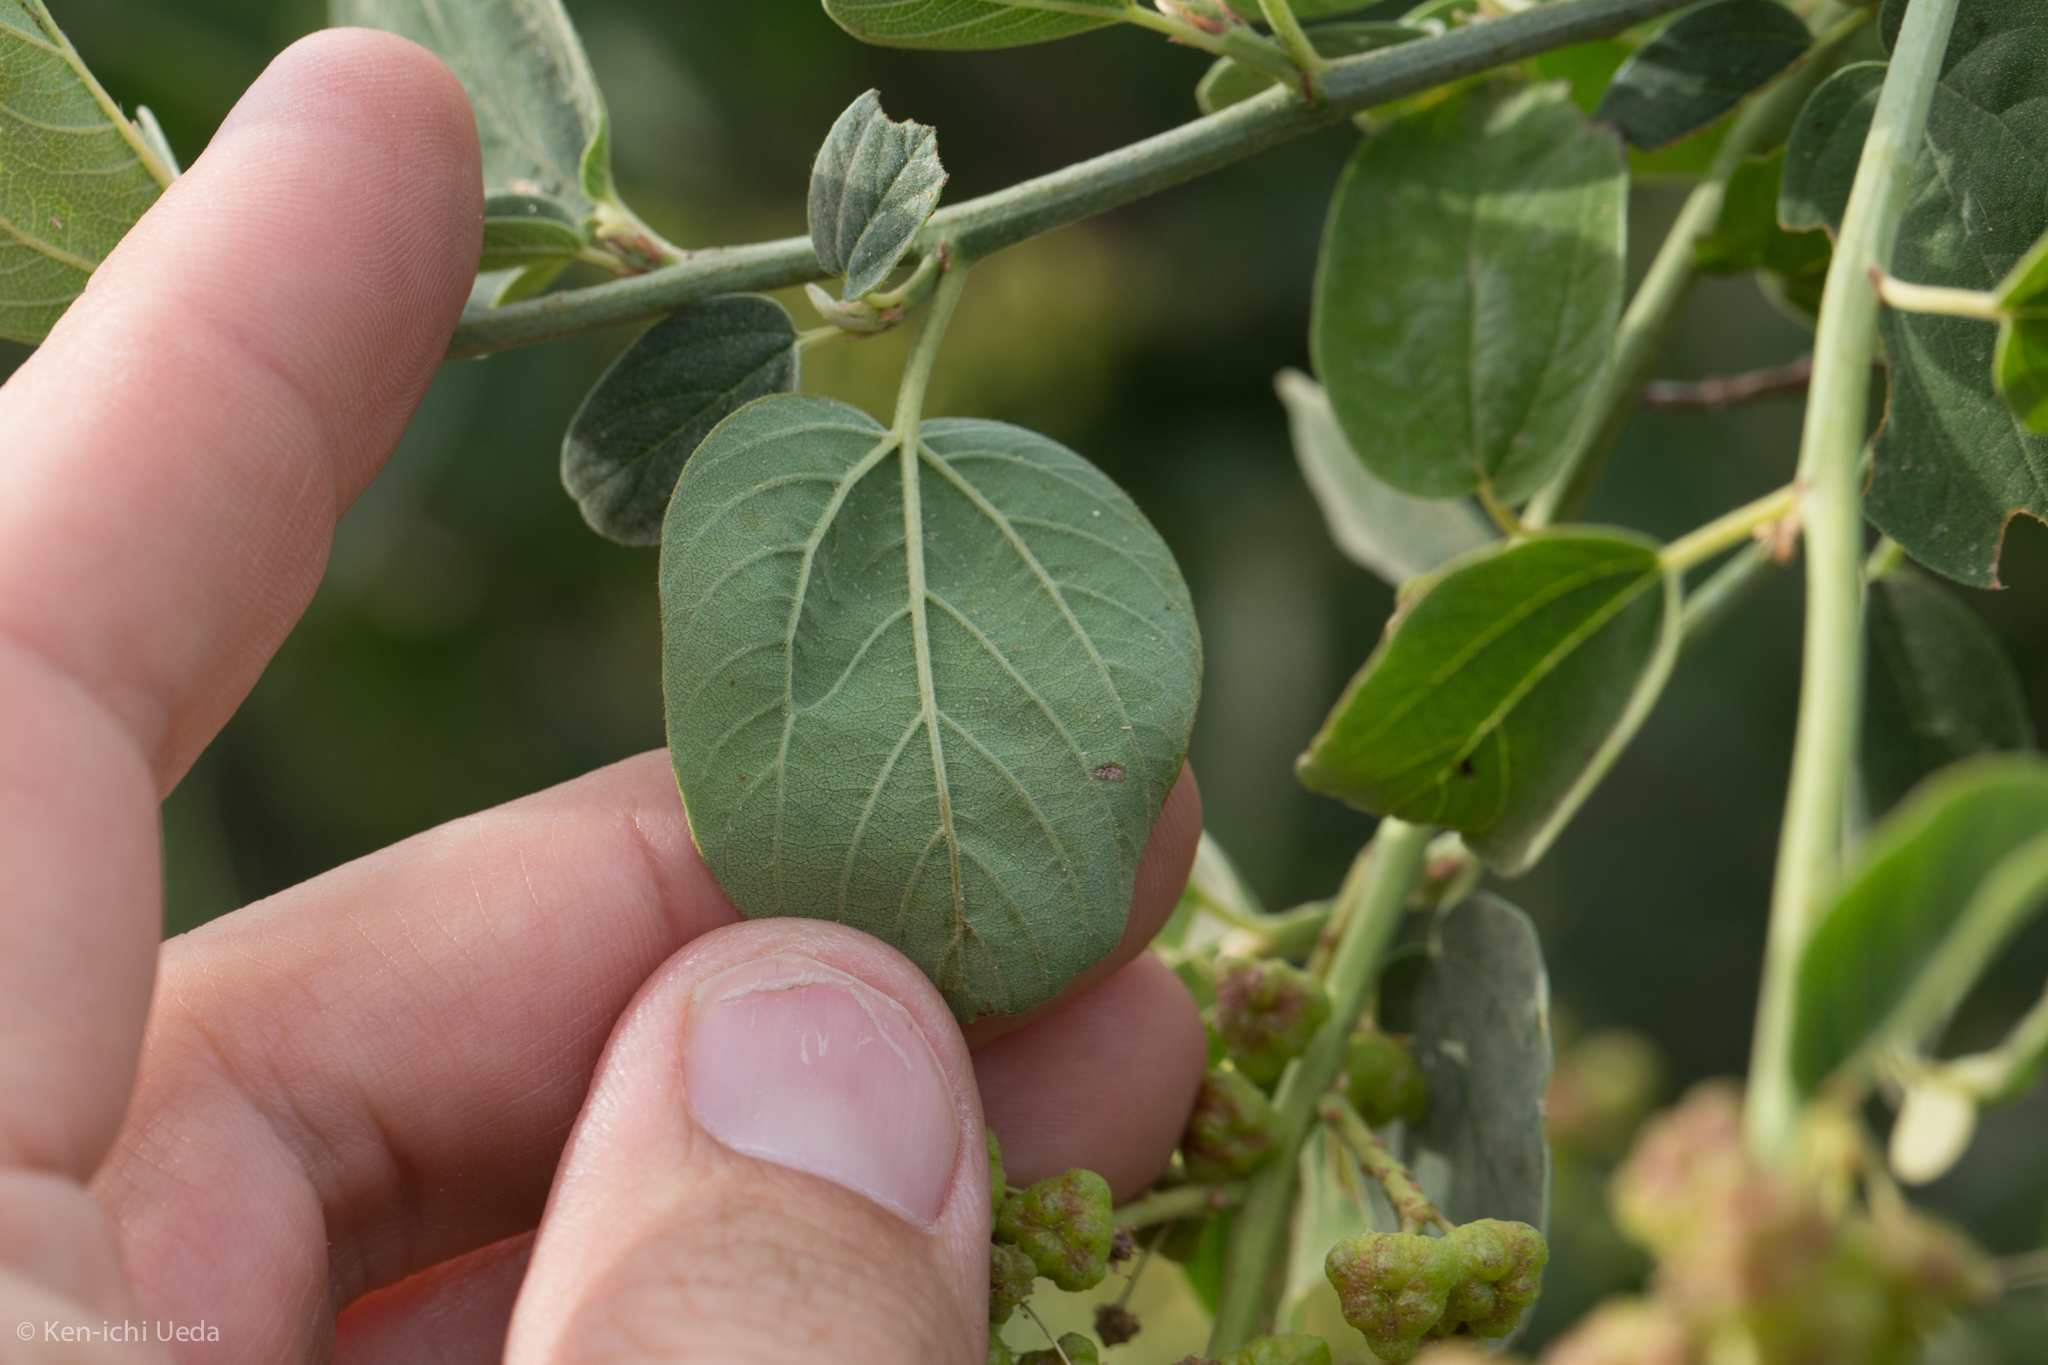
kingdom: Plantae
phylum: Tracheophyta
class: Magnoliopsida
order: Rosales
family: Rhamnaceae
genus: Ceanothus
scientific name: Ceanothus integerrimus
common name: Deerbrush ceanothus
